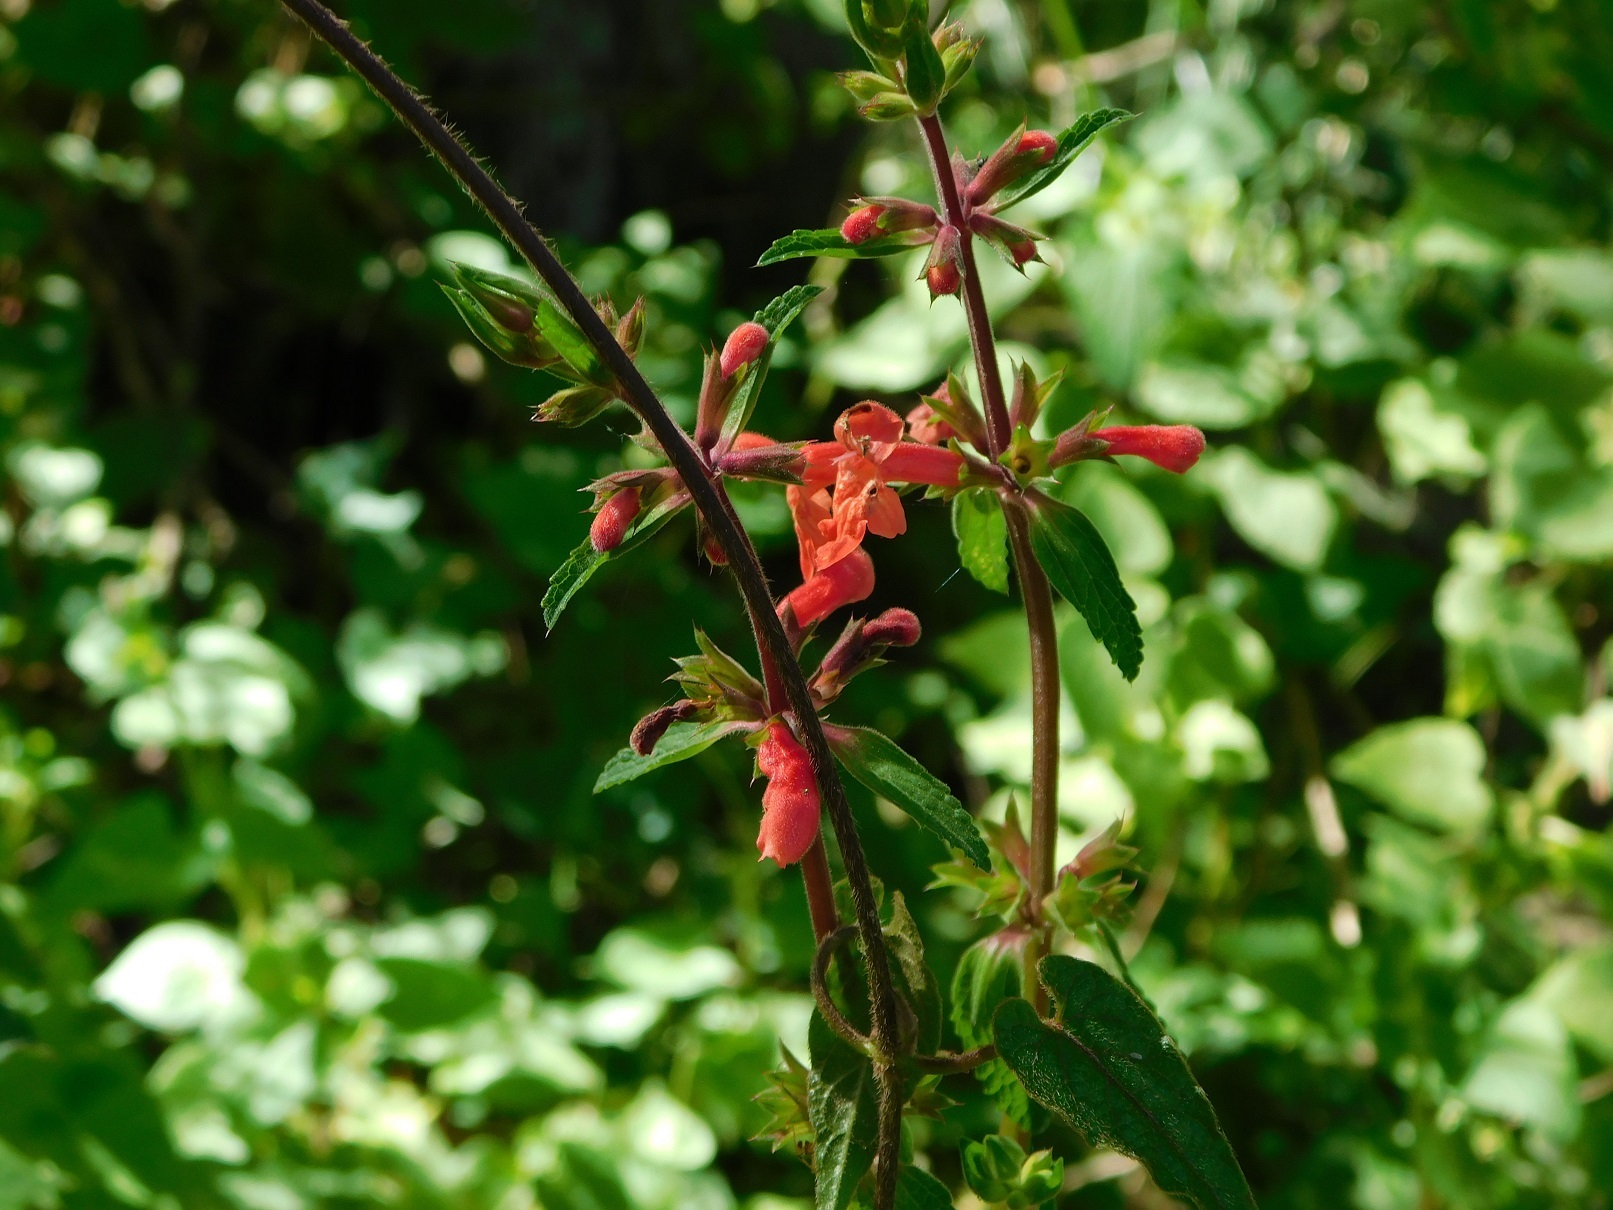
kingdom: Plantae
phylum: Tracheophyta
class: Magnoliopsida
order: Lamiales
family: Lamiaceae
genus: Stachys
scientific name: Stachys coccinea
